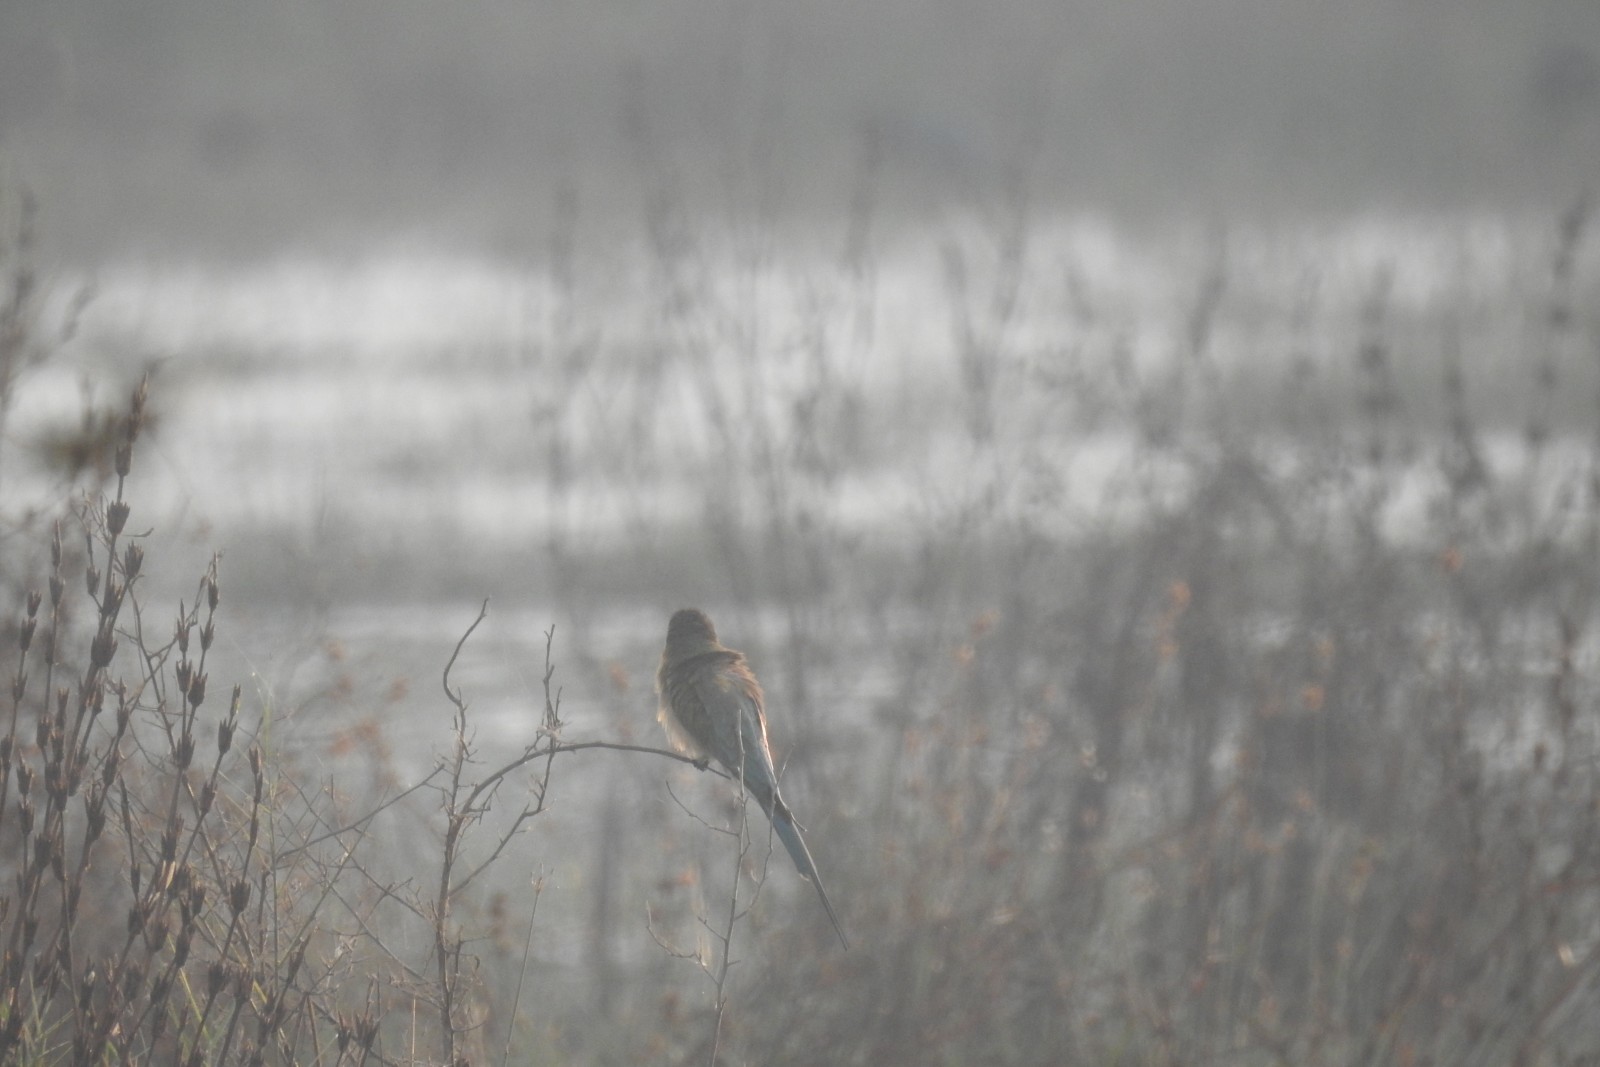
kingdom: Animalia
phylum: Chordata
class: Aves
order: Coraciiformes
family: Meropidae
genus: Merops
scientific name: Merops philippinus
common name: Blue-tailed bee-eater
